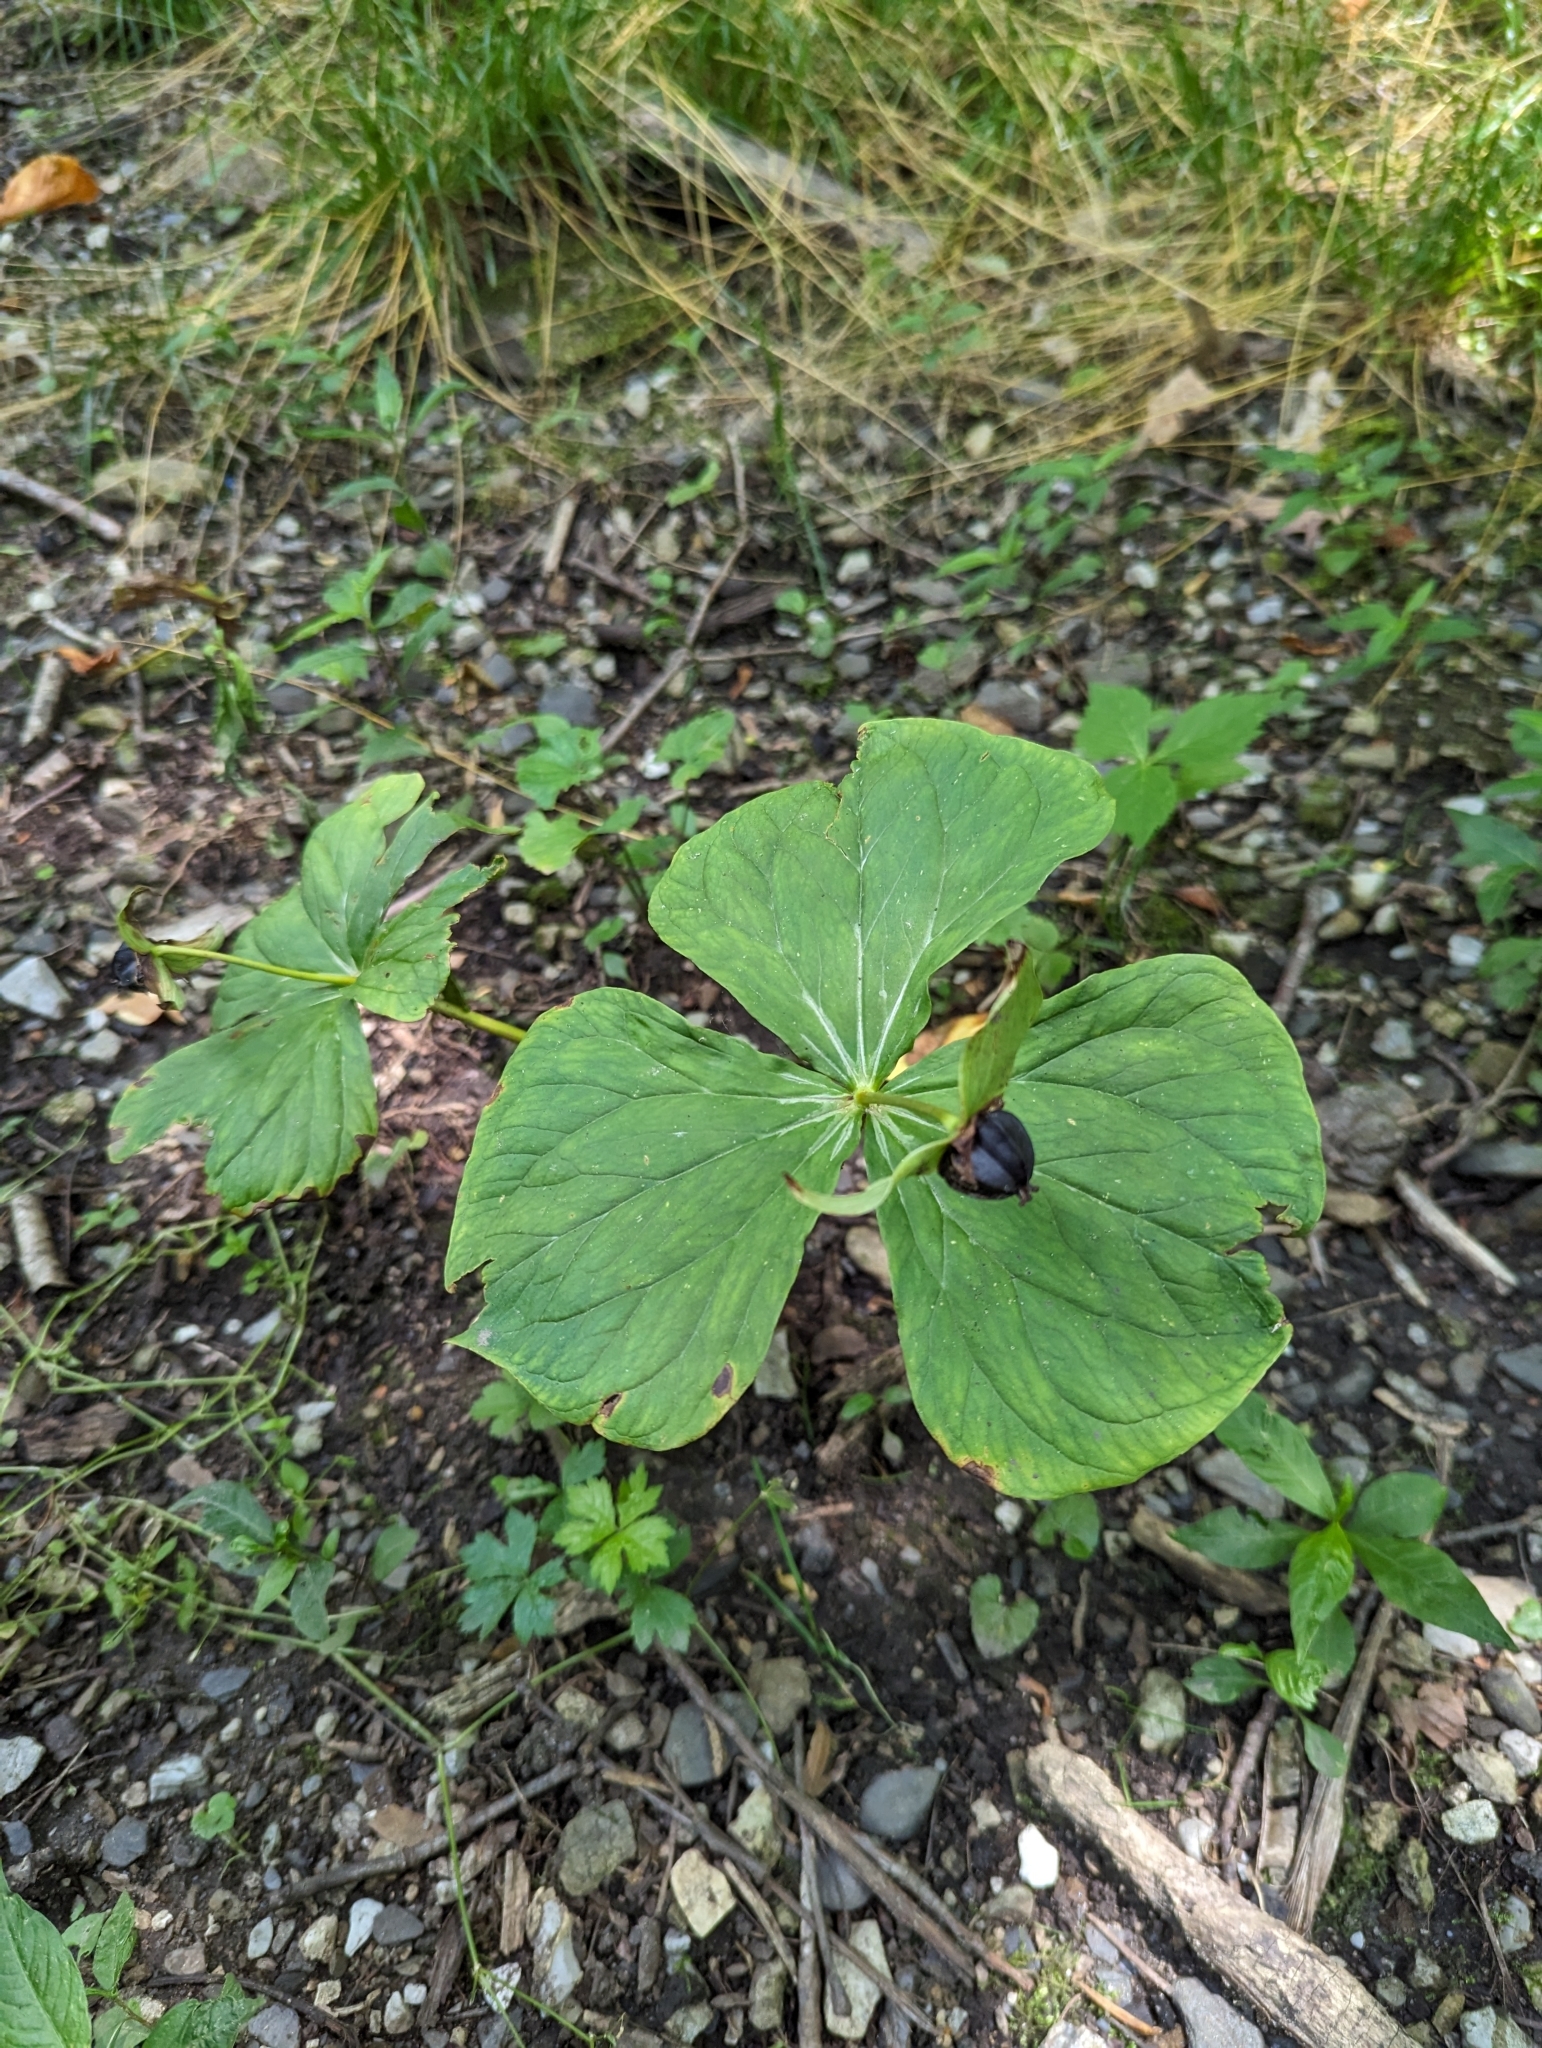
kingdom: Plantae
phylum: Tracheophyta
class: Liliopsida
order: Liliales
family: Melanthiaceae
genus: Trillium
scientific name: Trillium erectum
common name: Purple trillium
